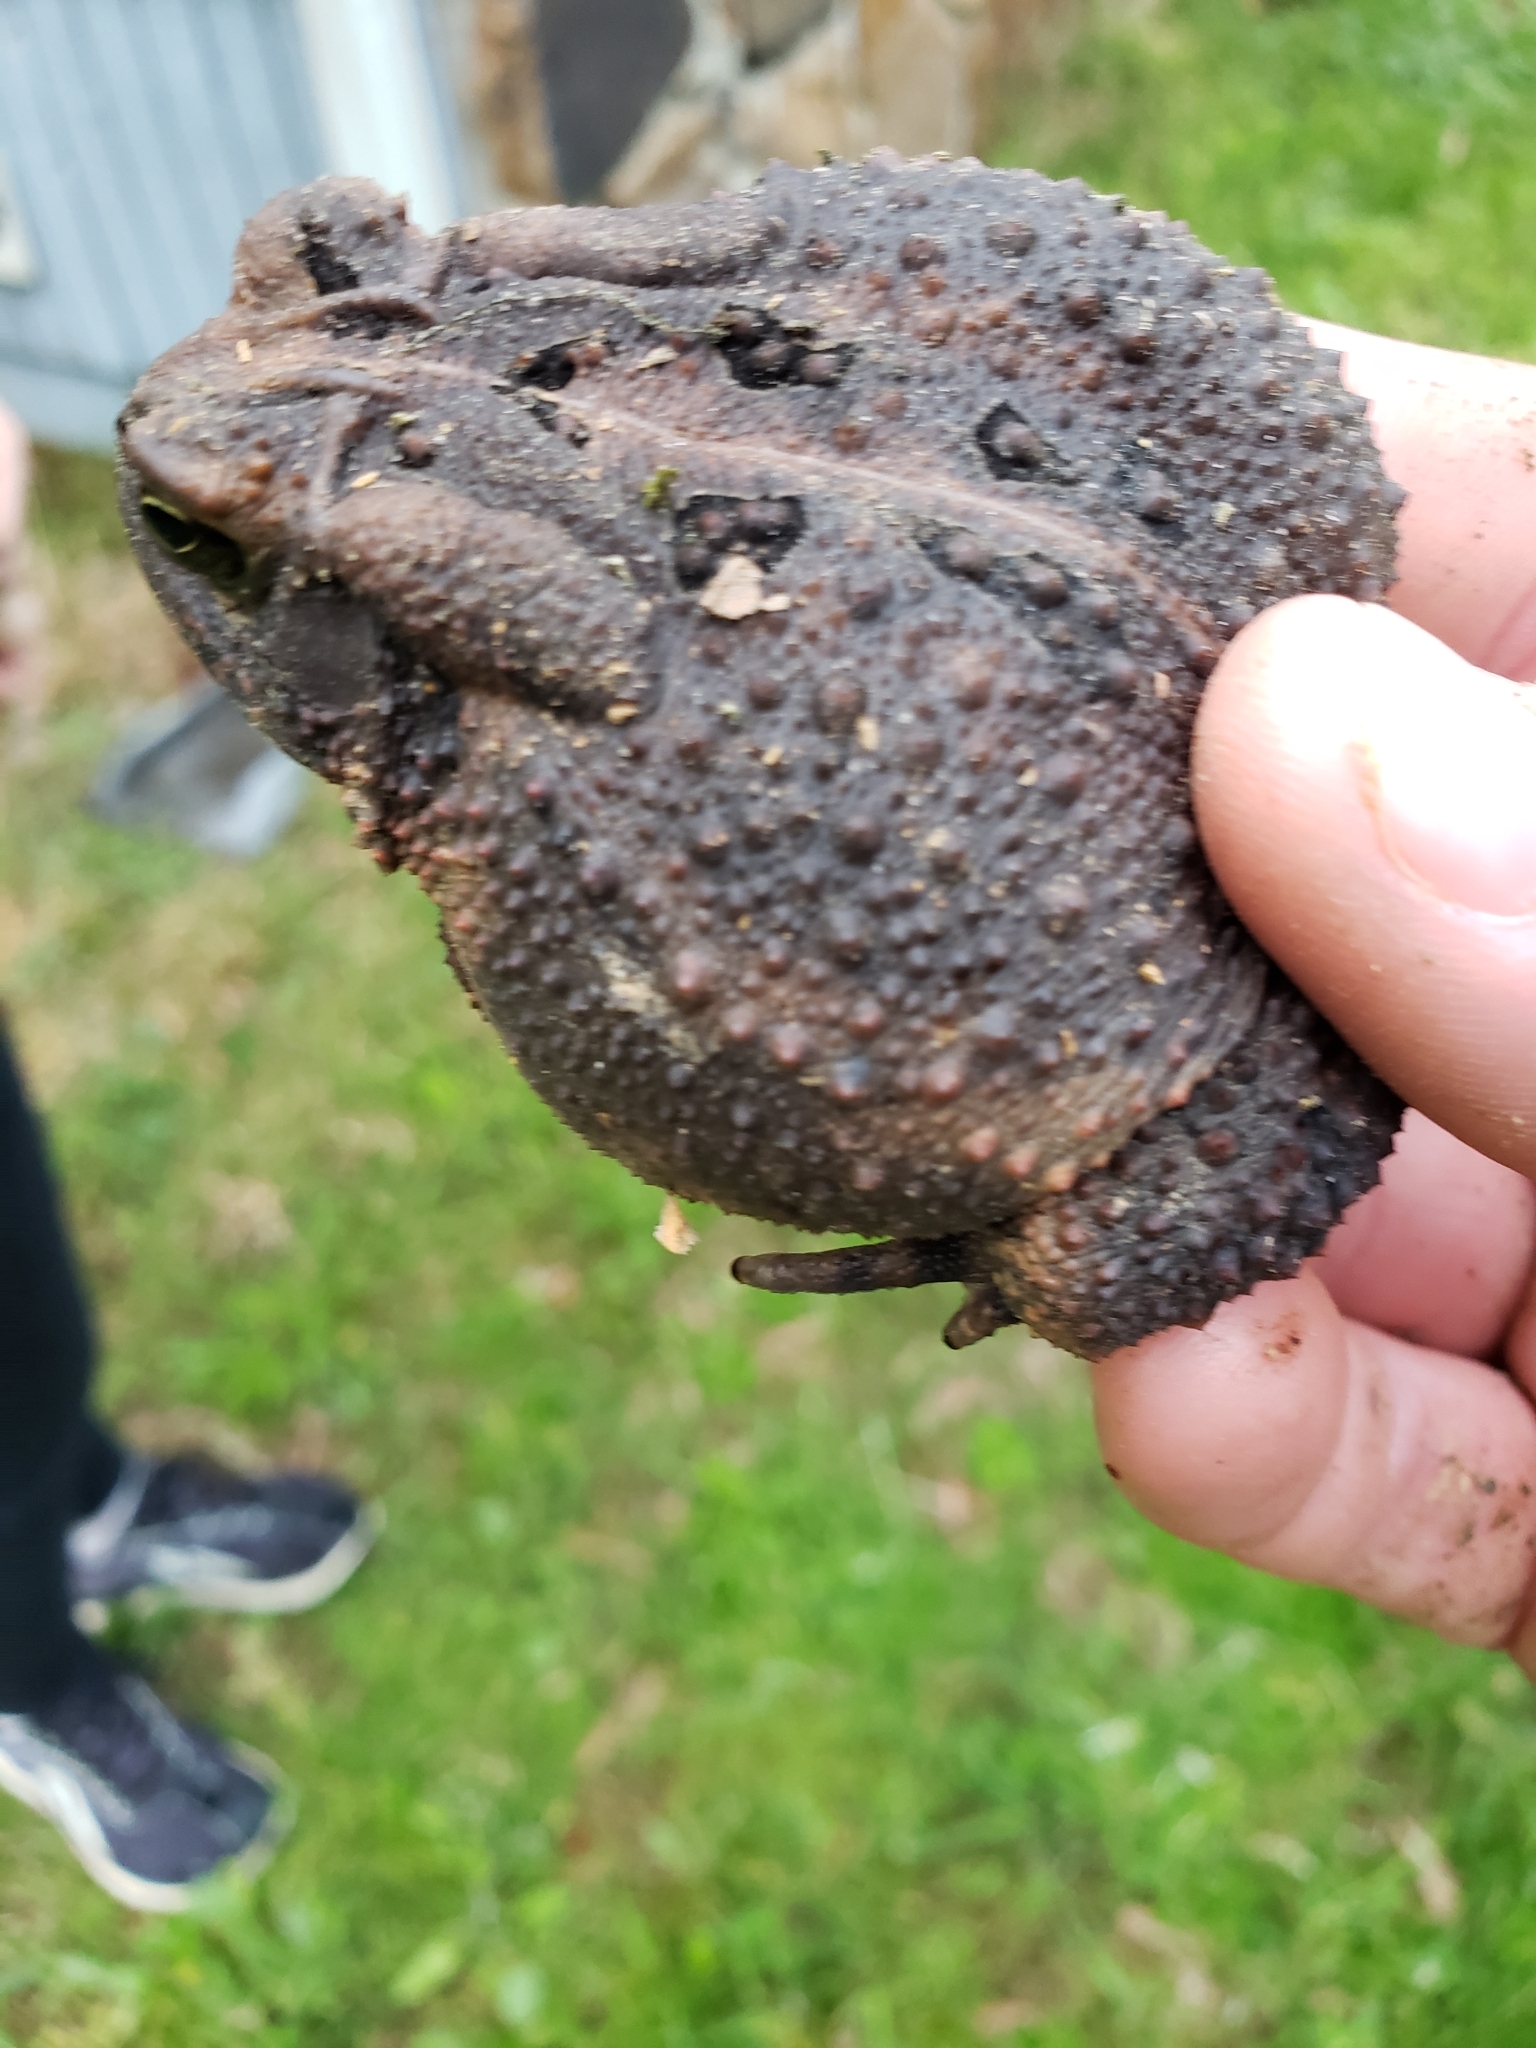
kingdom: Animalia
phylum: Chordata
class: Amphibia
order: Anura
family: Bufonidae
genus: Anaxyrus
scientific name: Anaxyrus fowleri
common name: Fowler's toad
